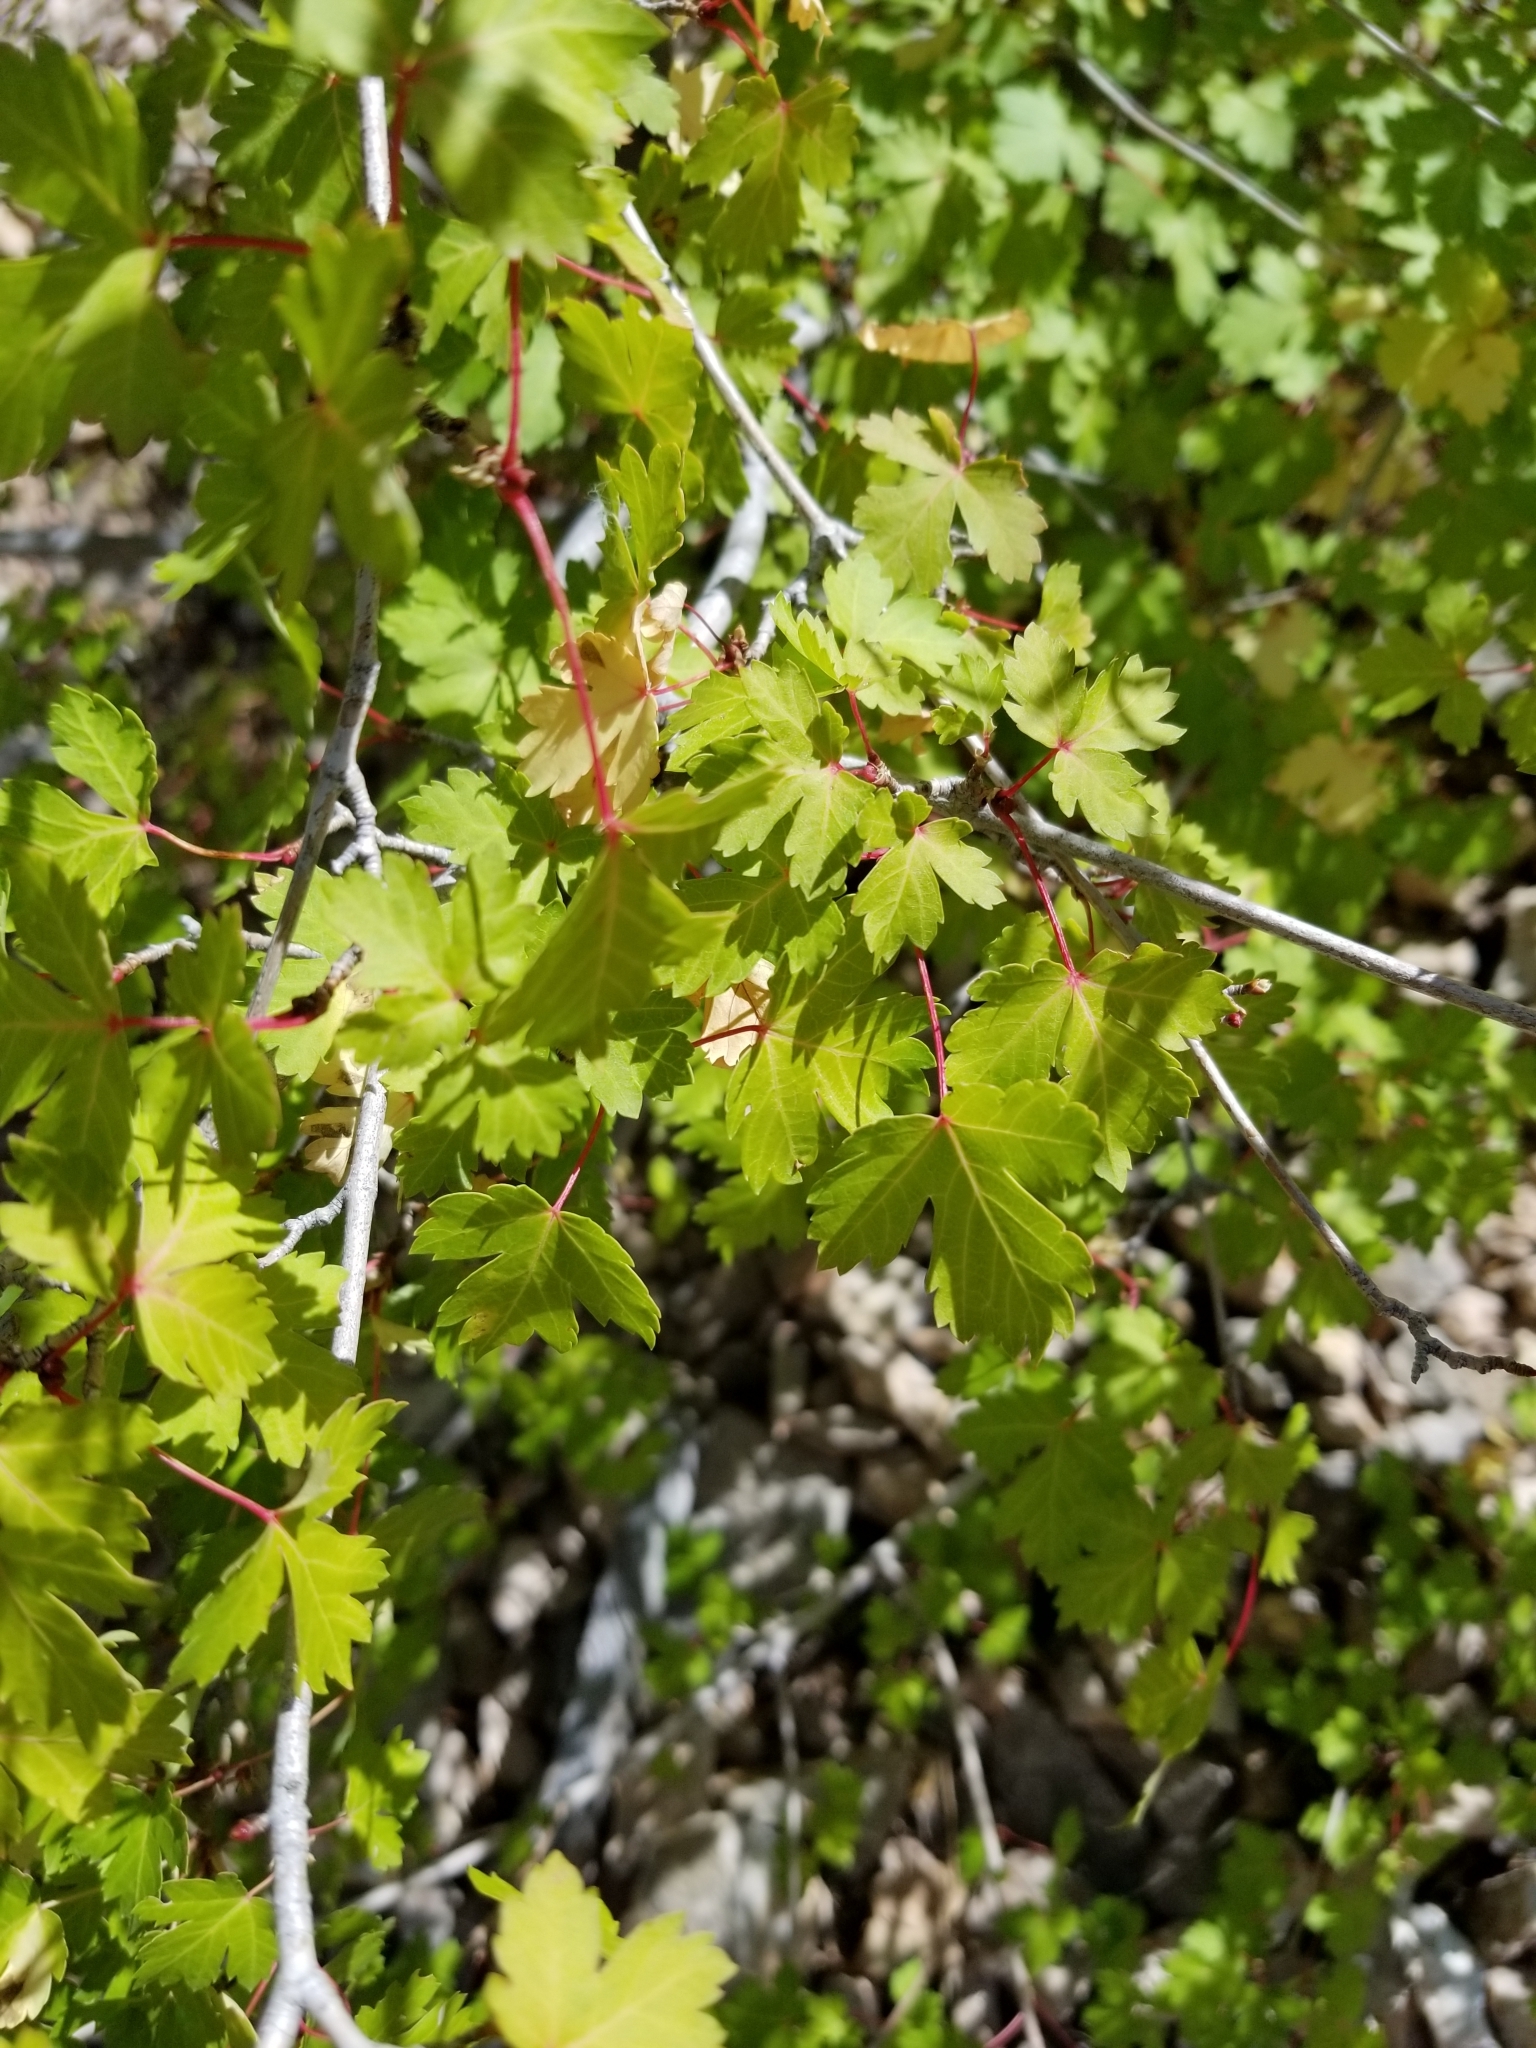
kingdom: Plantae
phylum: Tracheophyta
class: Magnoliopsida
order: Sapindales
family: Sapindaceae
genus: Acer
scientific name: Acer glabrum
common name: Rocky mountain maple
